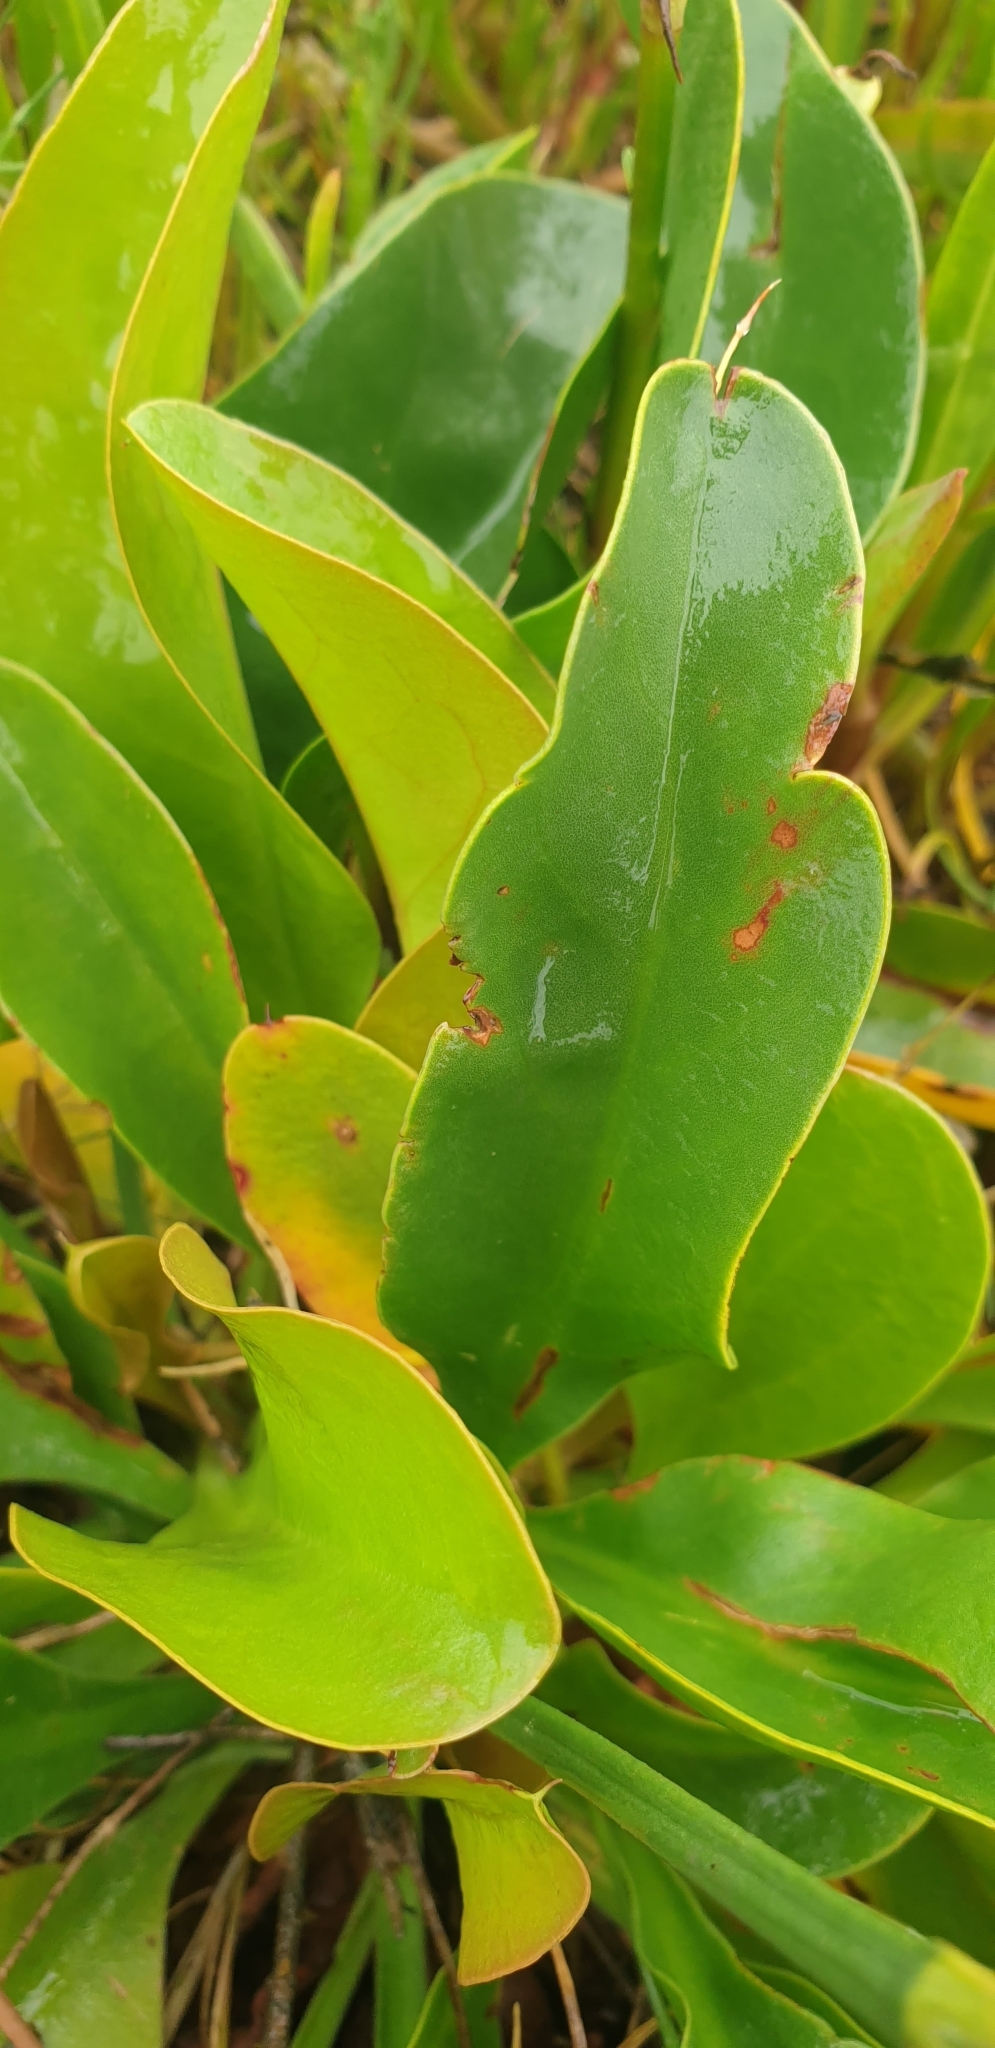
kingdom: Plantae
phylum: Tracheophyta
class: Magnoliopsida
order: Caryophyllales
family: Plumbaginaceae
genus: Limonium
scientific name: Limonium vulgare
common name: Common sea-lavender
